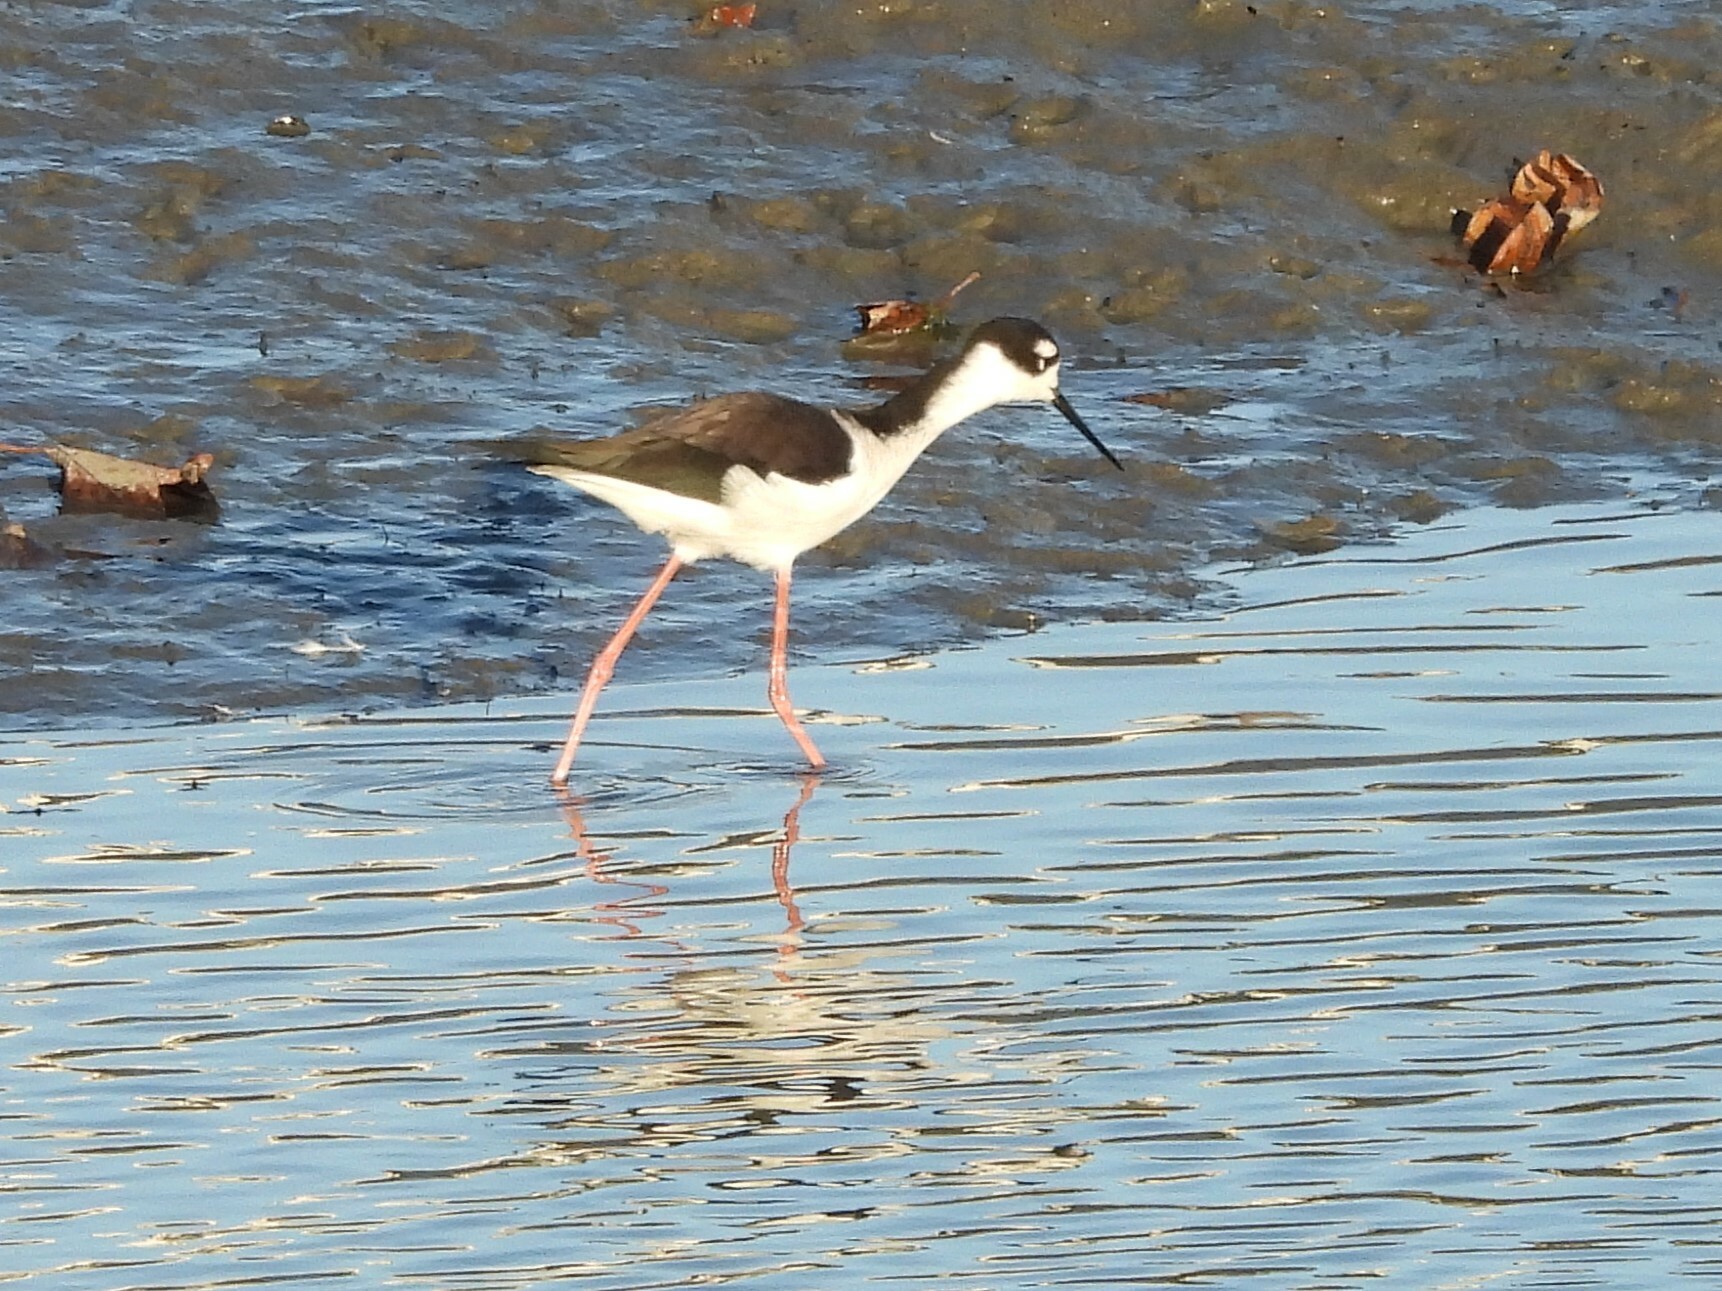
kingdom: Animalia
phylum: Chordata
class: Aves
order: Charadriiformes
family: Recurvirostridae
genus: Himantopus
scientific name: Himantopus mexicanus
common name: Black-necked stilt
